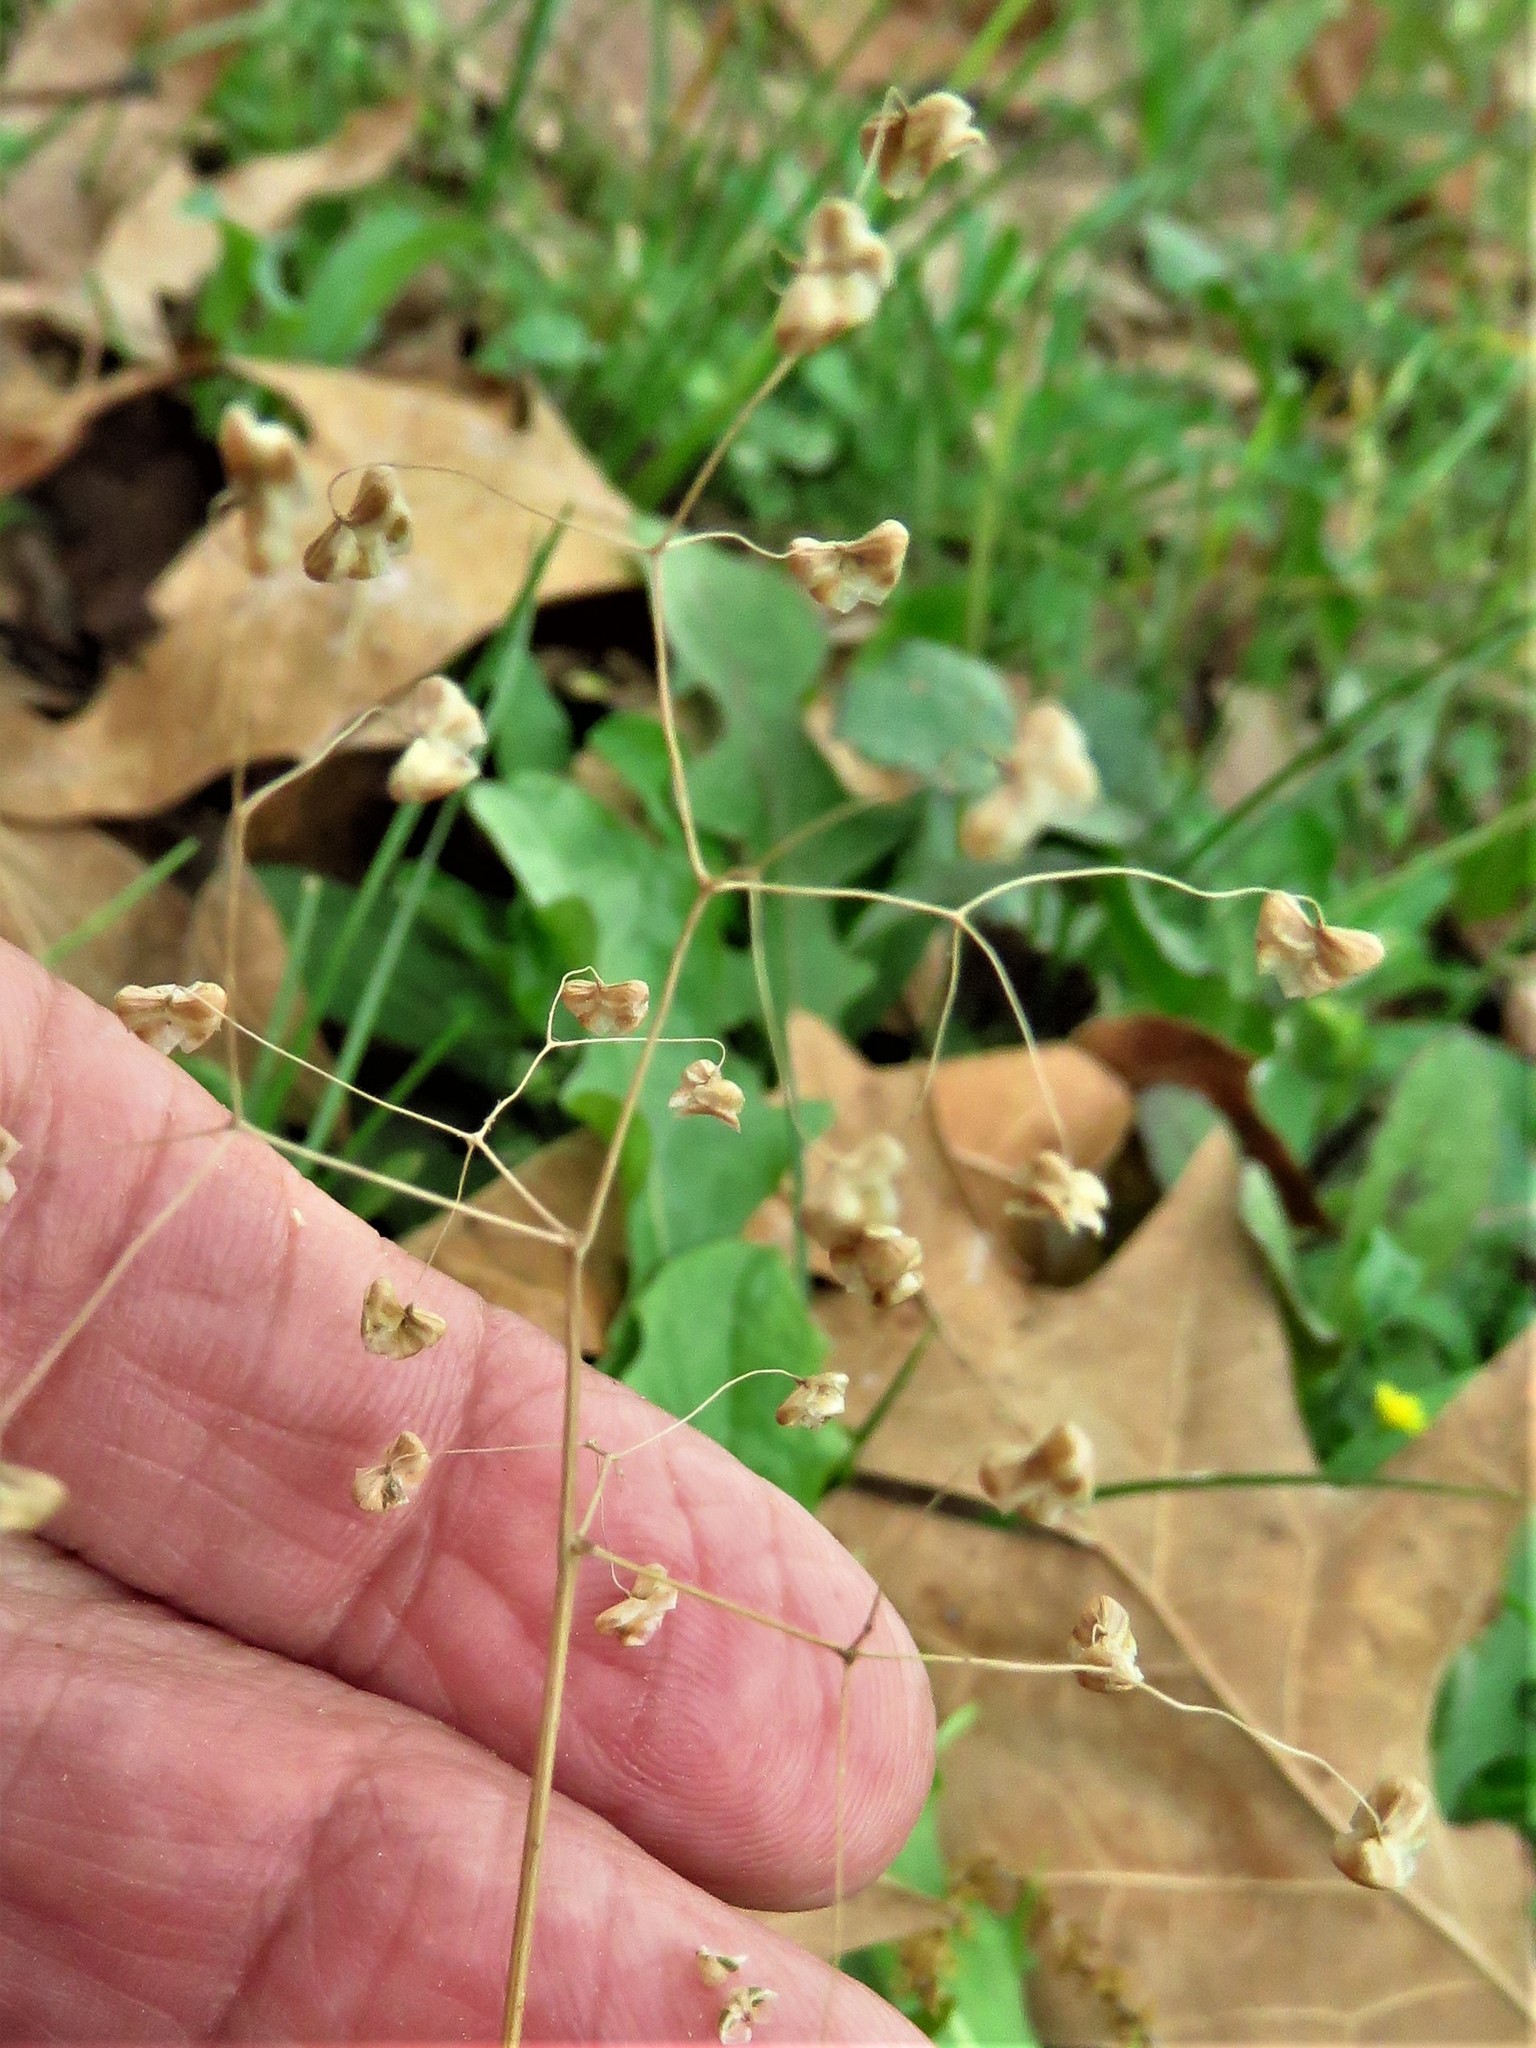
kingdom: Plantae
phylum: Tracheophyta
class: Liliopsida
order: Poales
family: Poaceae
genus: Briza
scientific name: Briza minor
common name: Lesser quaking-grass
